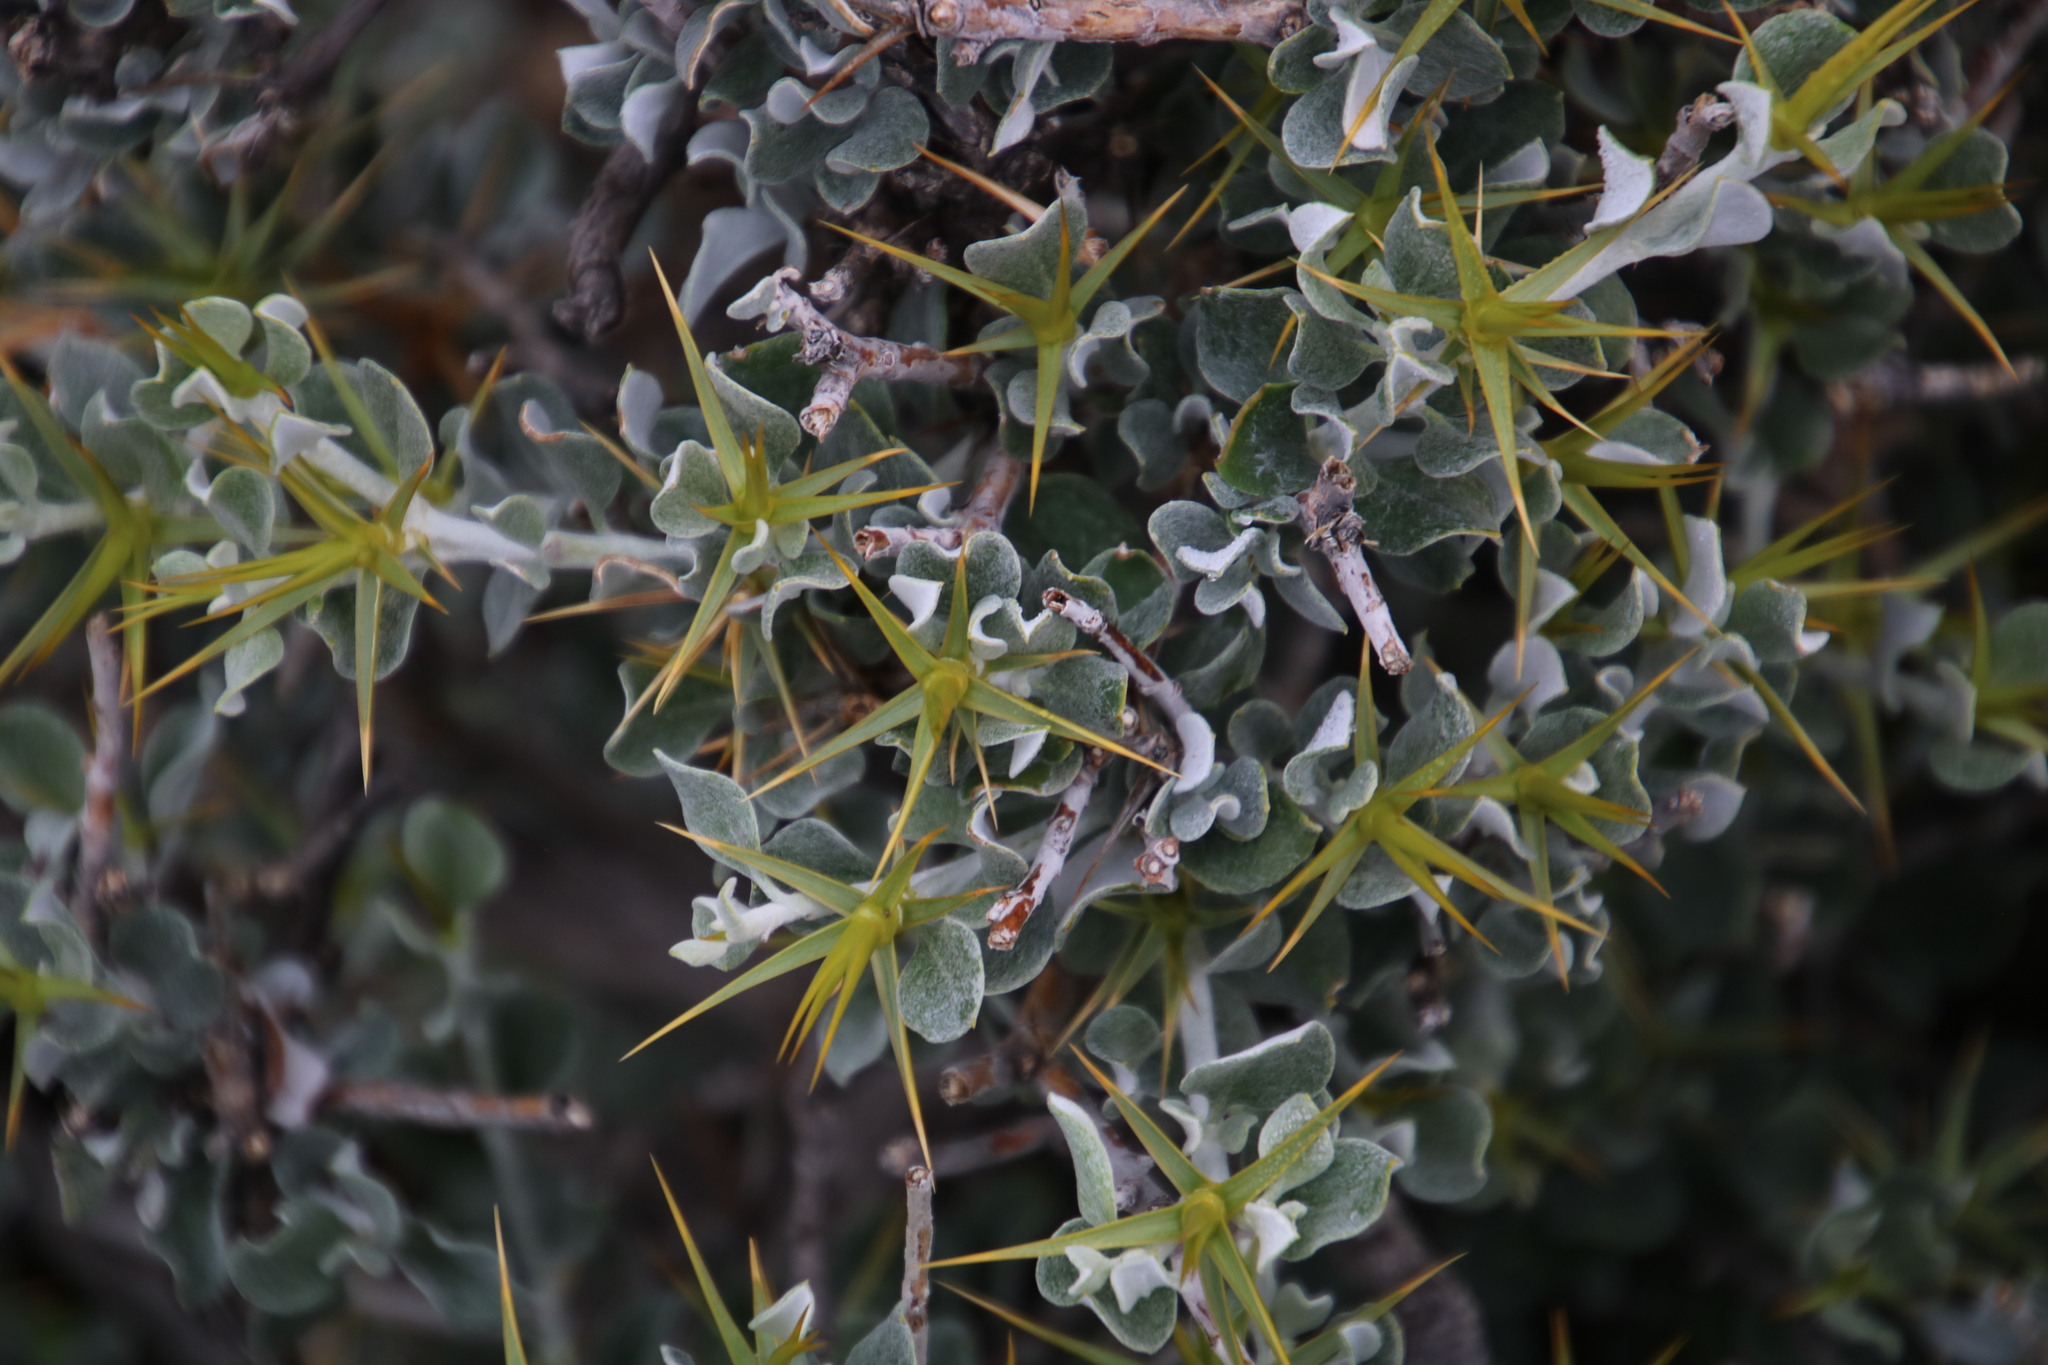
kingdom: Plantae
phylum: Tracheophyta
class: Magnoliopsida
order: Asterales
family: Asteraceae
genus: Macledium
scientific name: Macledium spinosum
